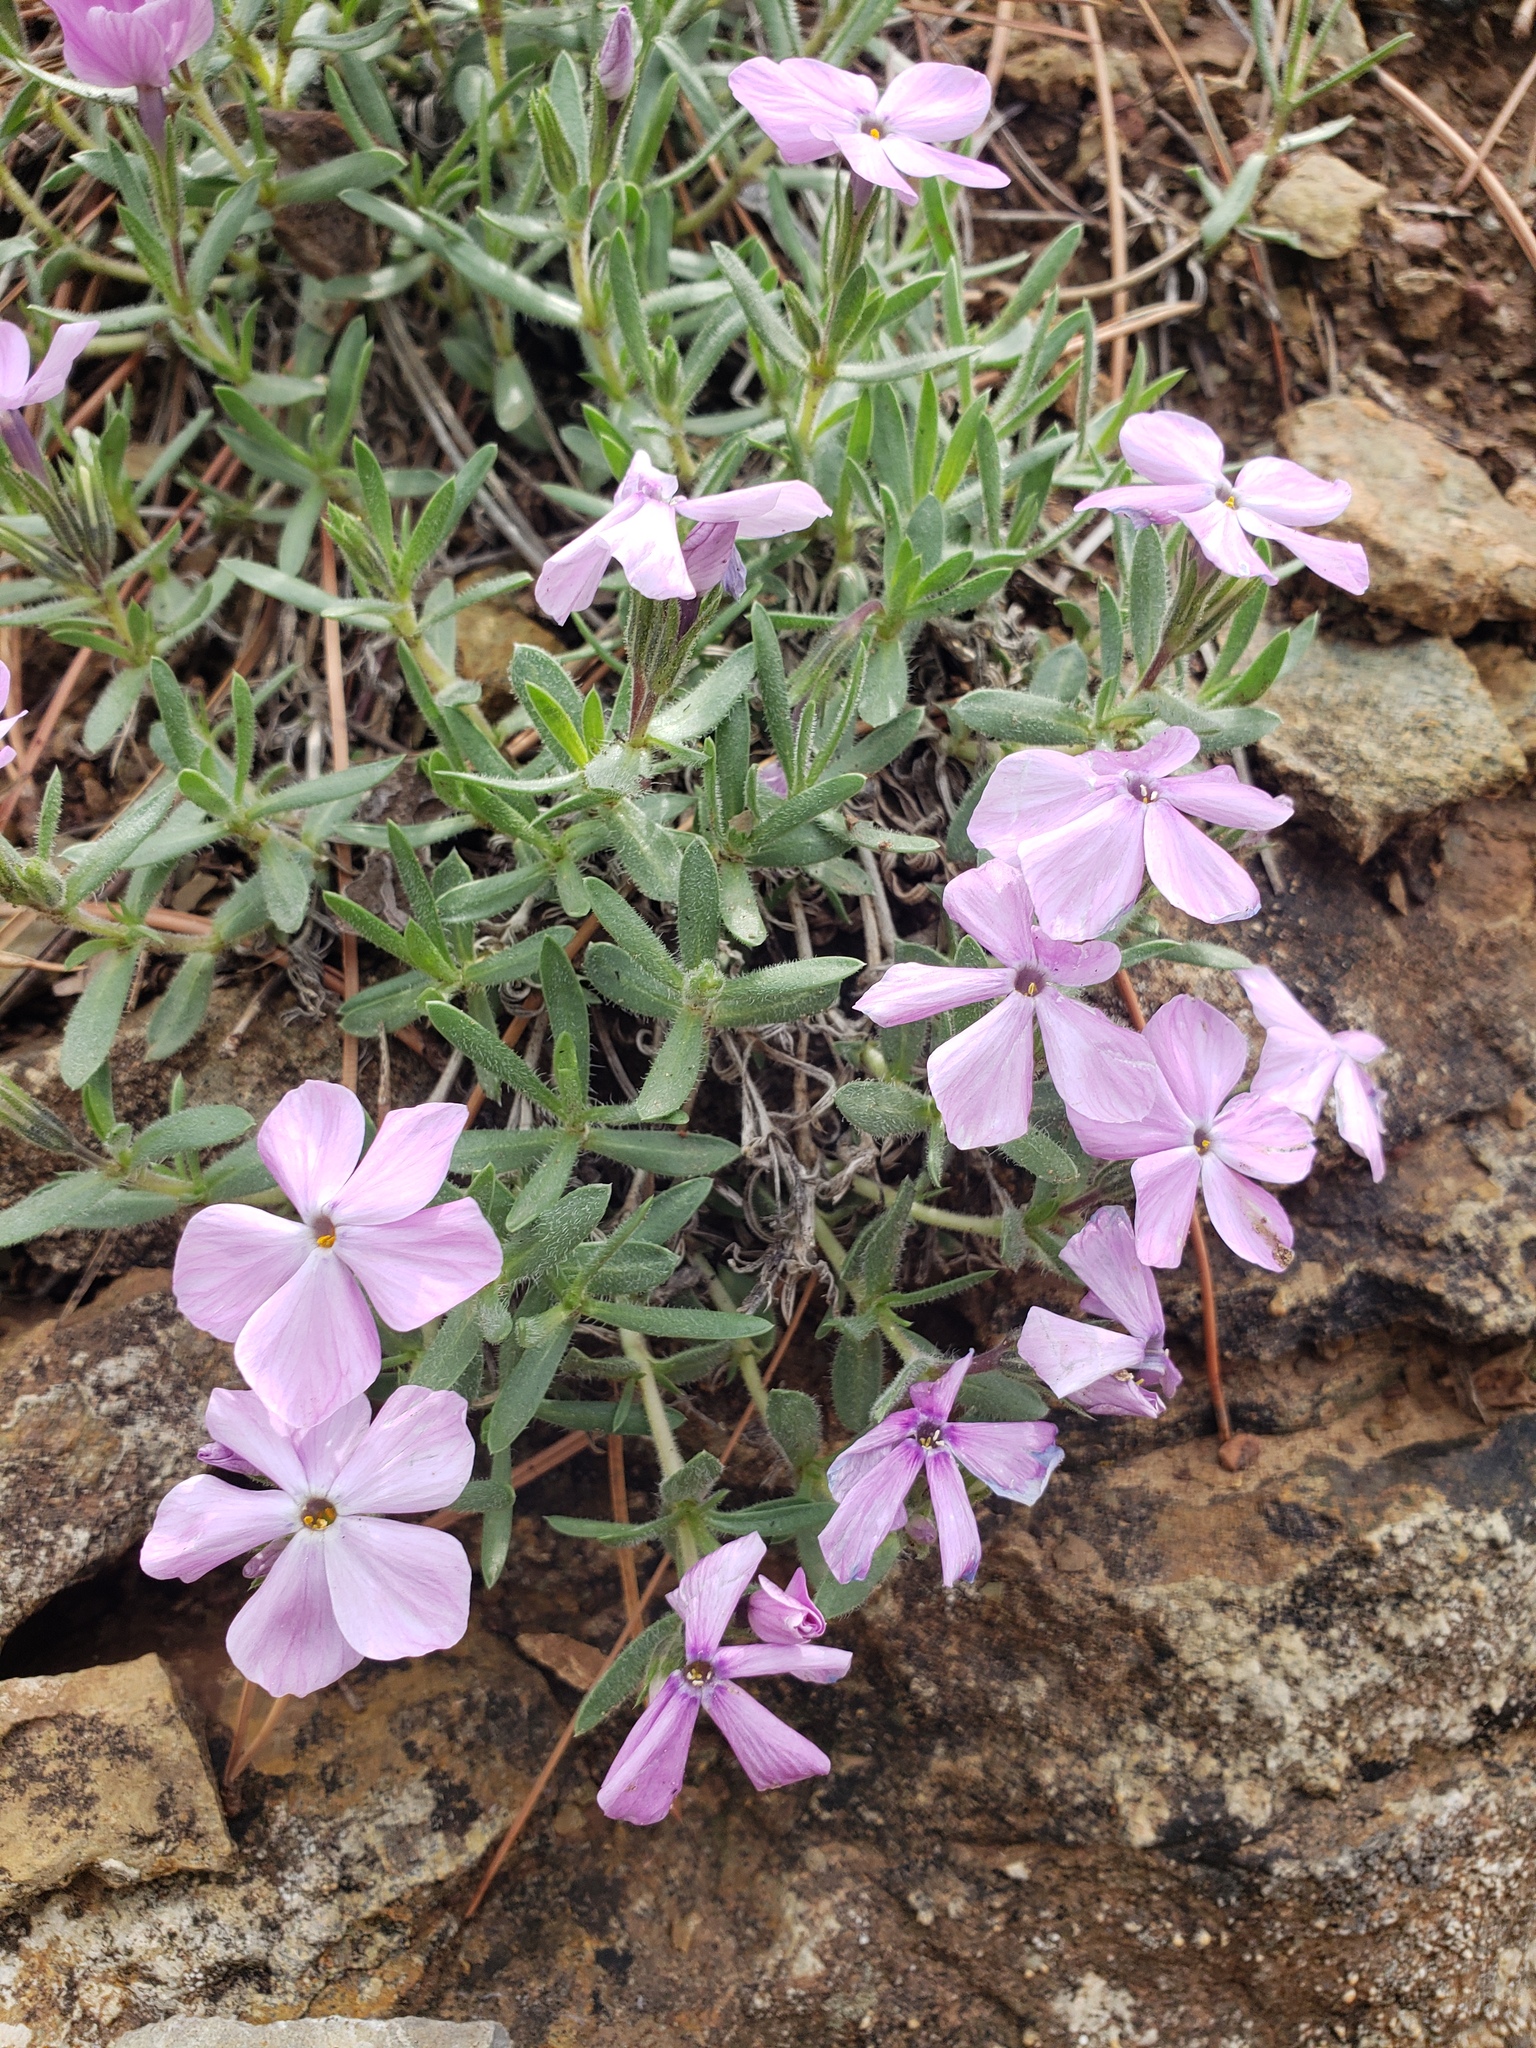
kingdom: Plantae
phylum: Tracheophyta
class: Magnoliopsida
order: Ericales
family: Polemoniaceae
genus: Phlox
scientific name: Phlox alyssifolia
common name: Blue phlox
